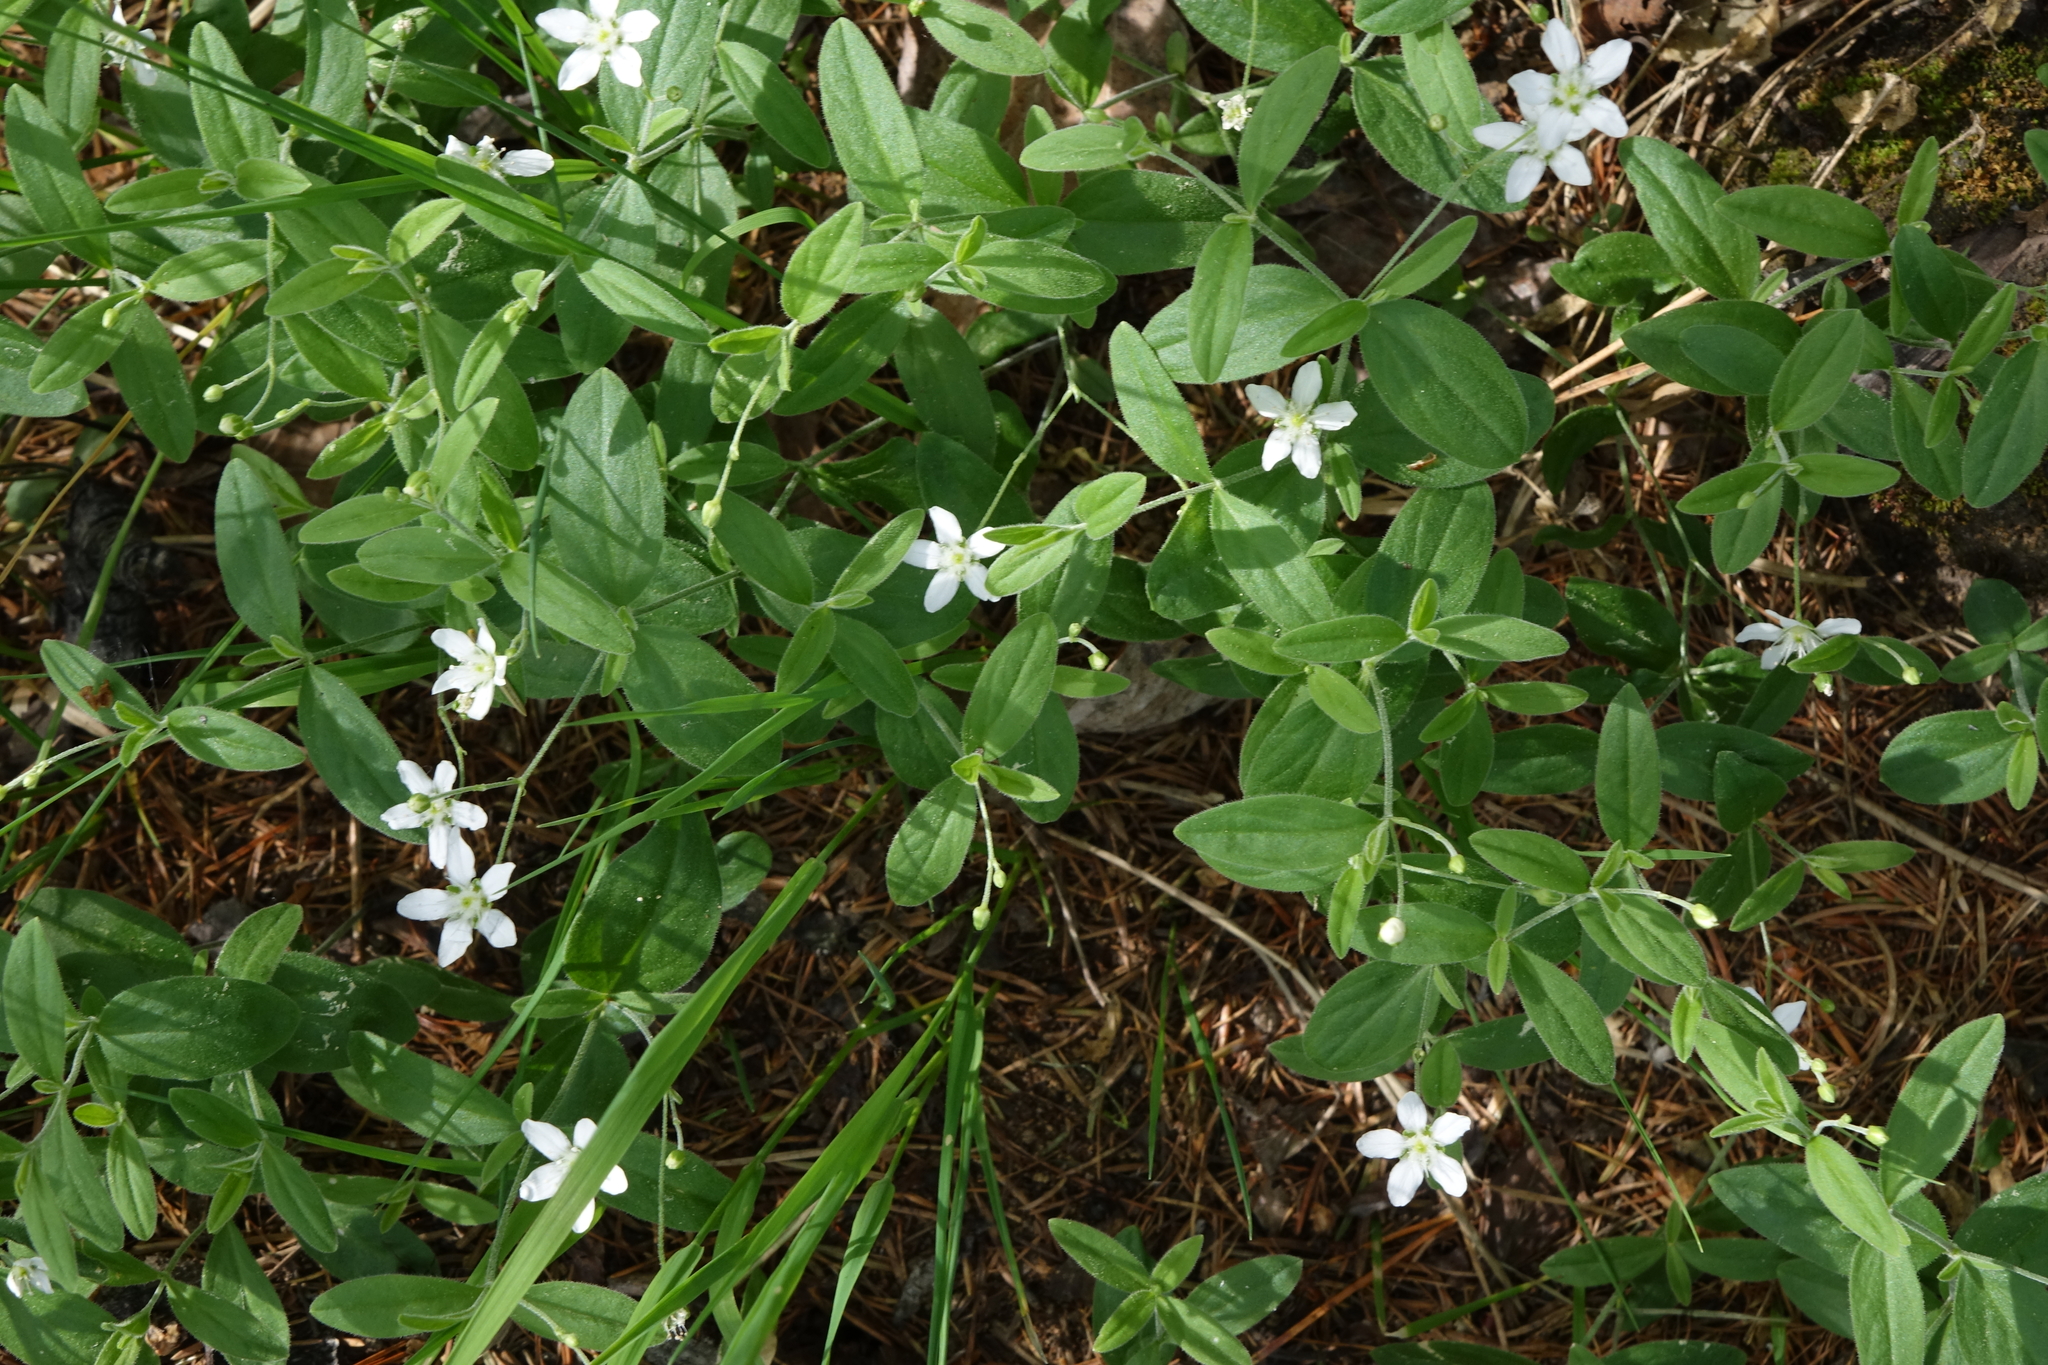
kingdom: Plantae
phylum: Tracheophyta
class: Magnoliopsida
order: Caryophyllales
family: Caryophyllaceae
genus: Moehringia
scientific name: Moehringia lateriflora
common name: Blunt-leaved sandwort
